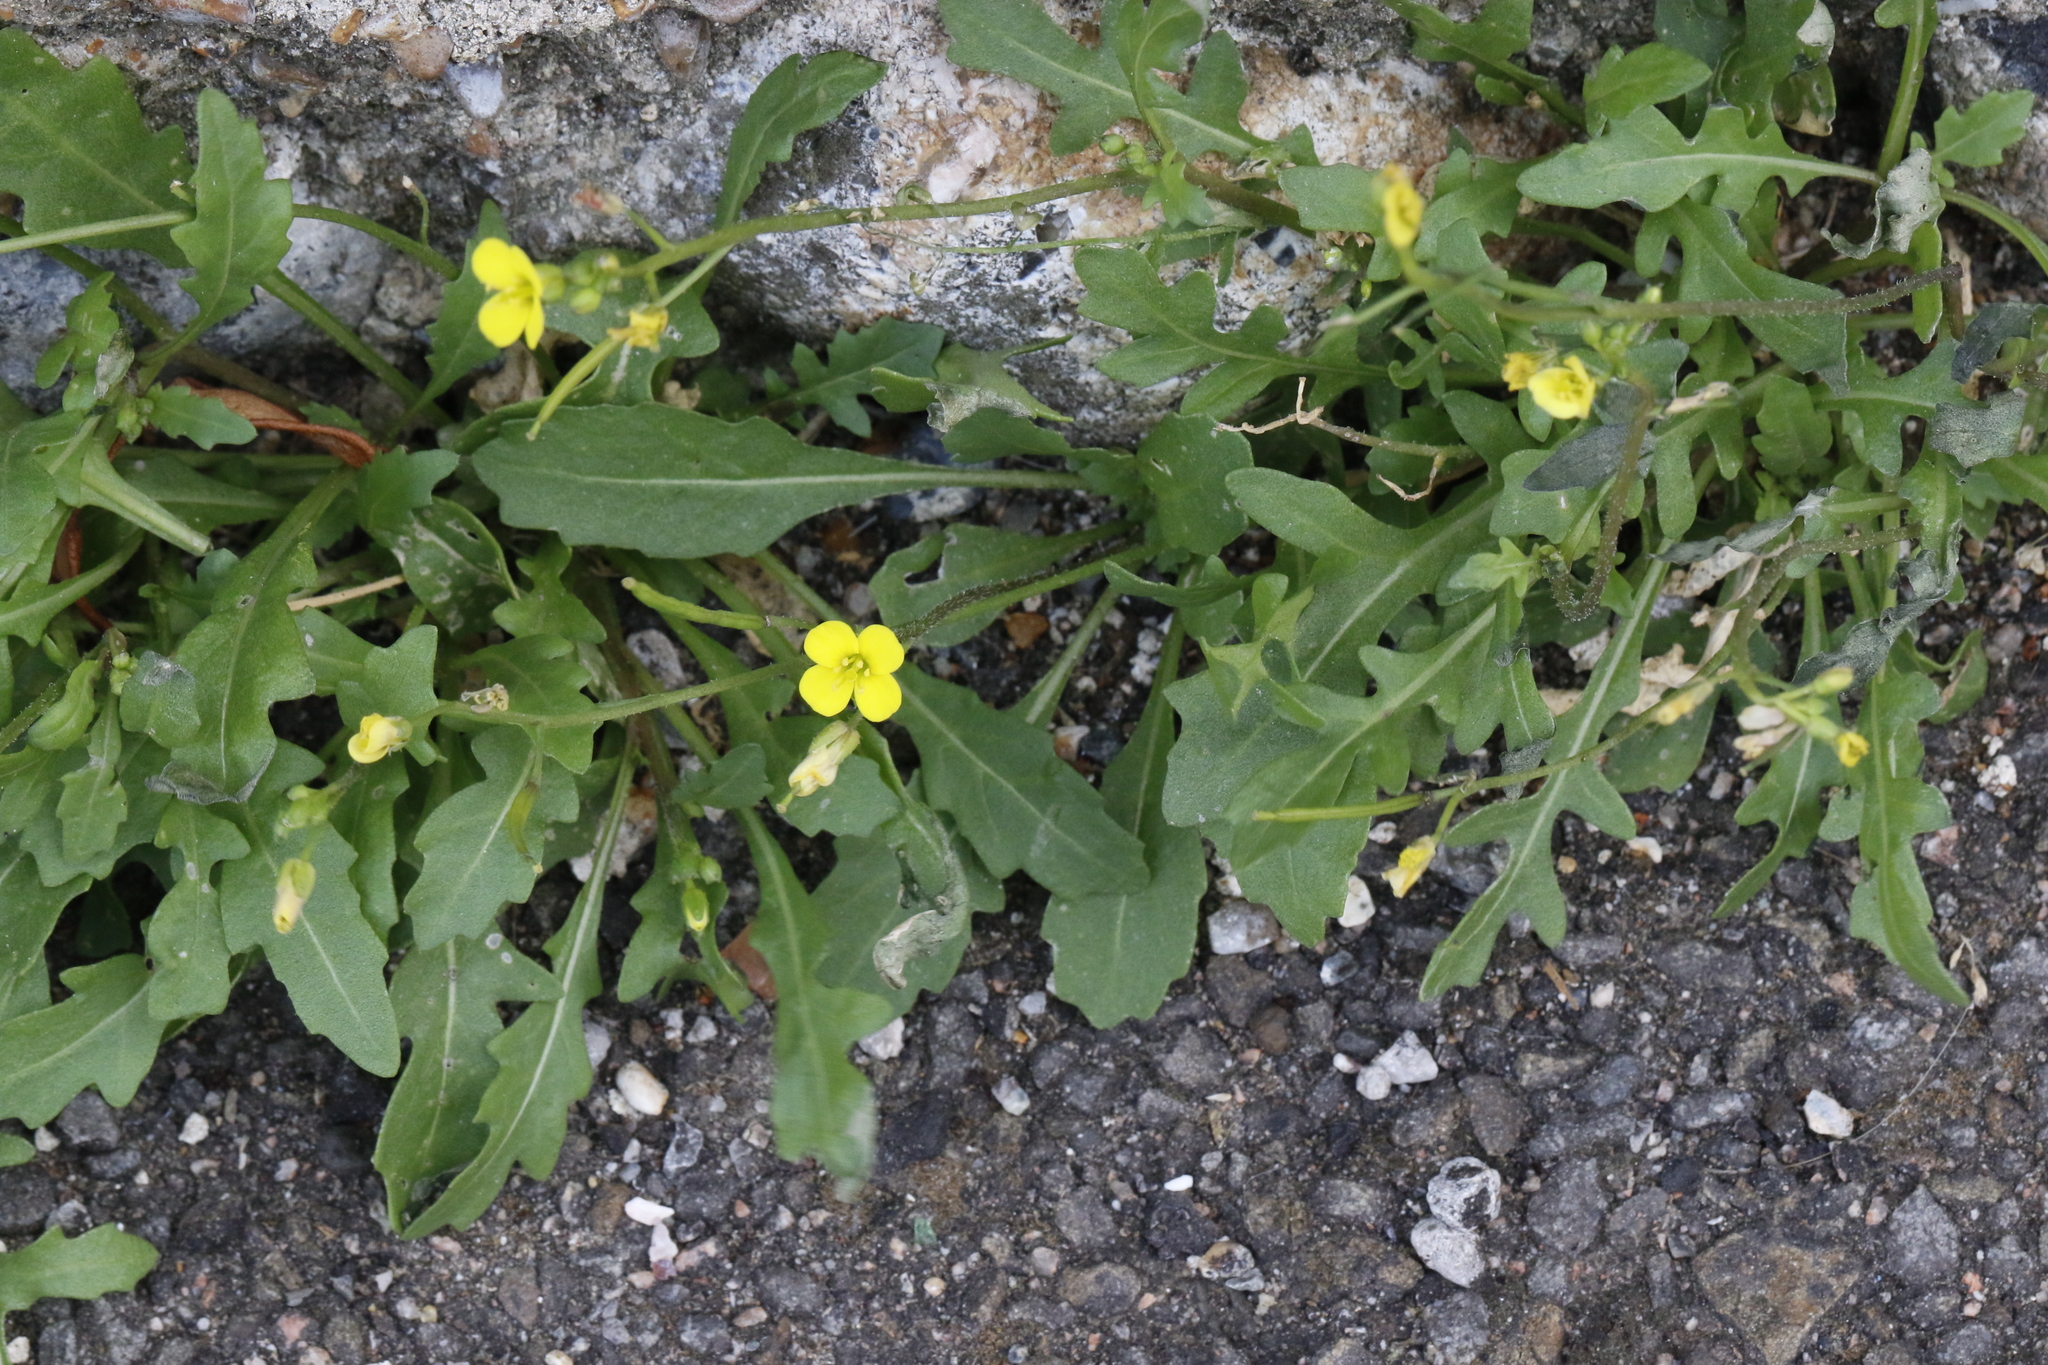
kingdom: Plantae
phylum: Tracheophyta
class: Magnoliopsida
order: Brassicales
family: Brassicaceae
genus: Diplotaxis
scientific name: Diplotaxis muralis
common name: Annual wall-rocket
